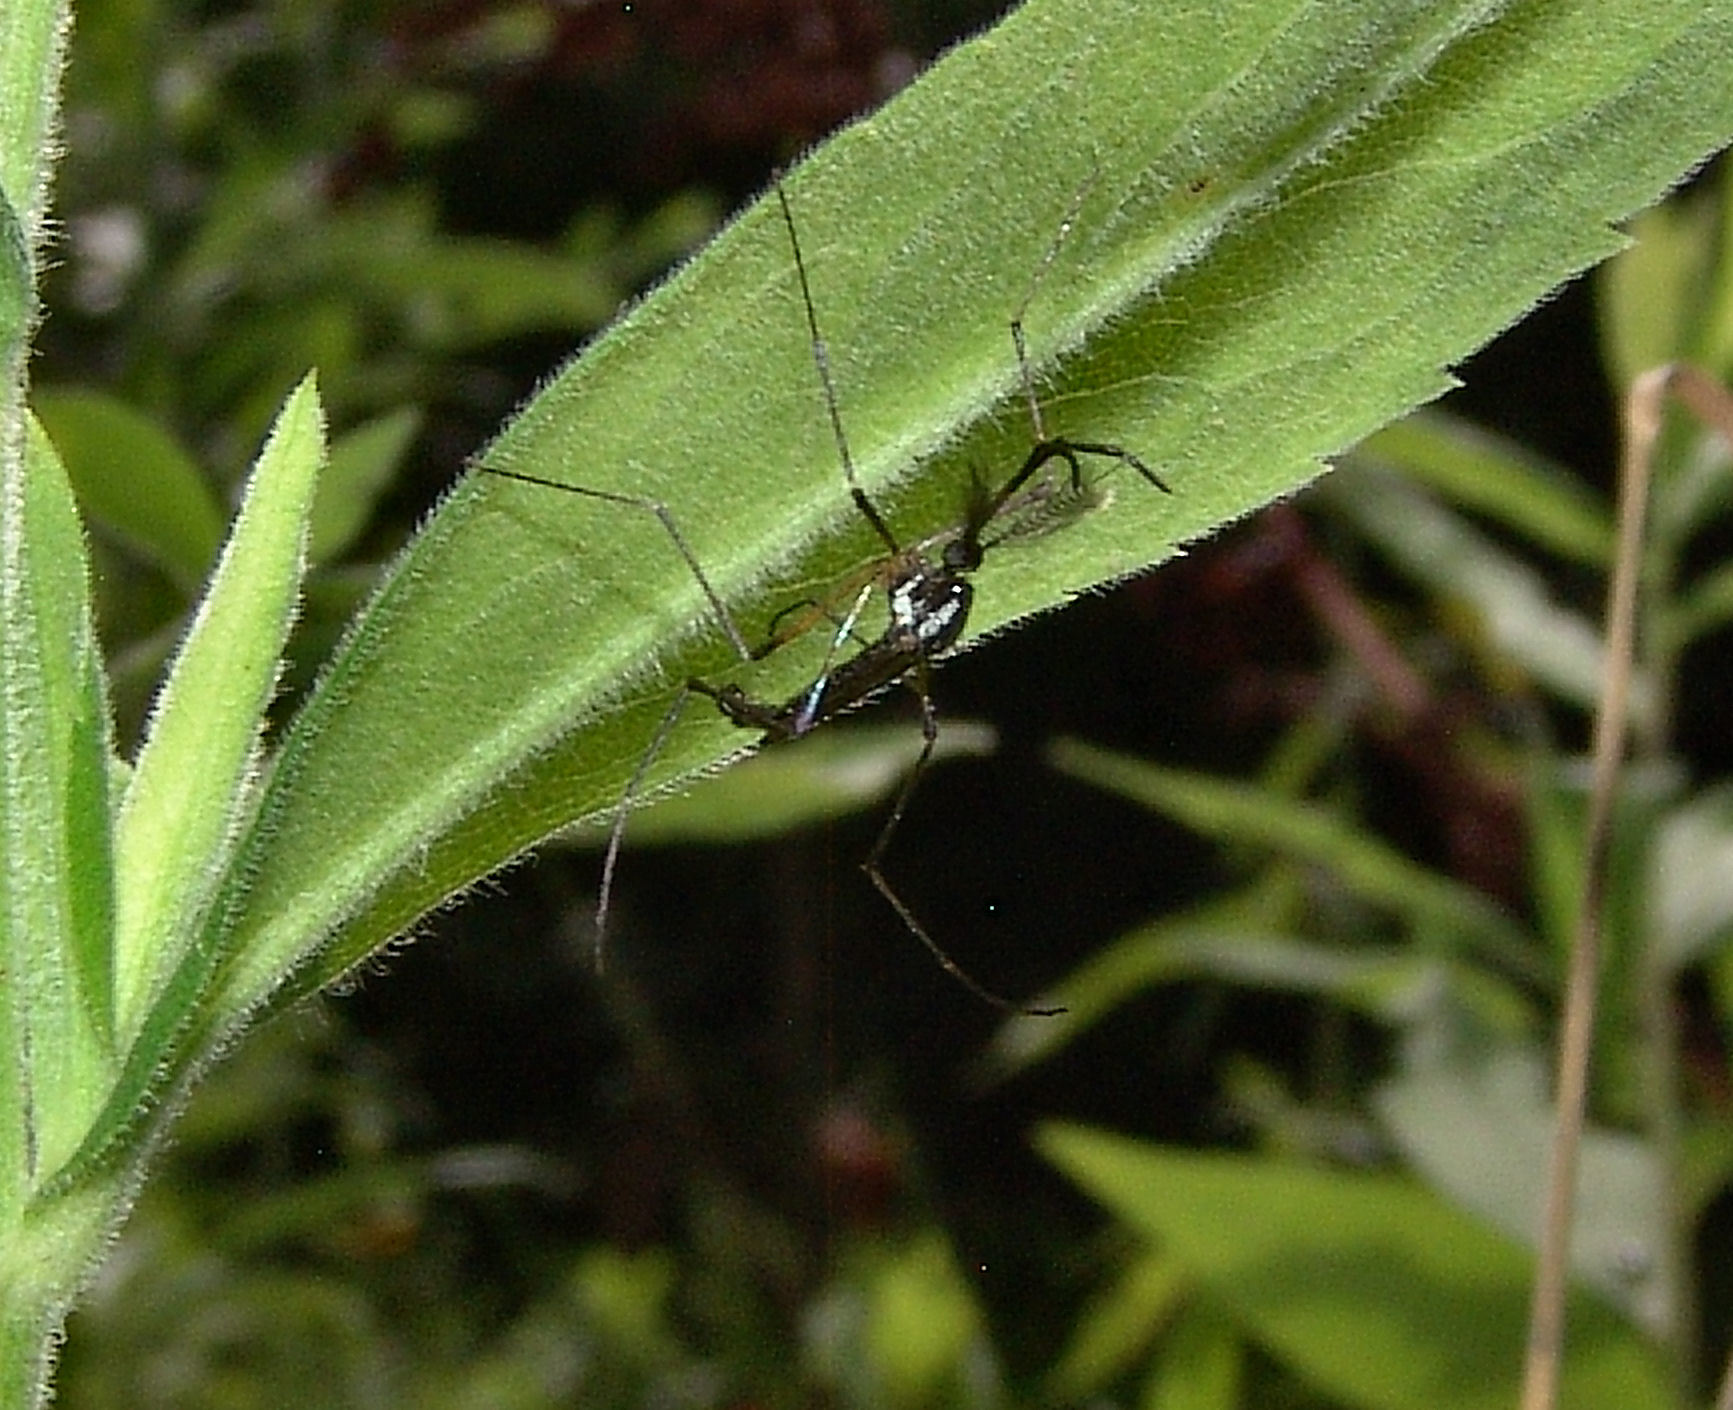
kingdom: Animalia
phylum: Arthropoda
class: Insecta
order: Diptera
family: Culicidae
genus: Toxorhynchites
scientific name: Toxorhynchites rutilus
